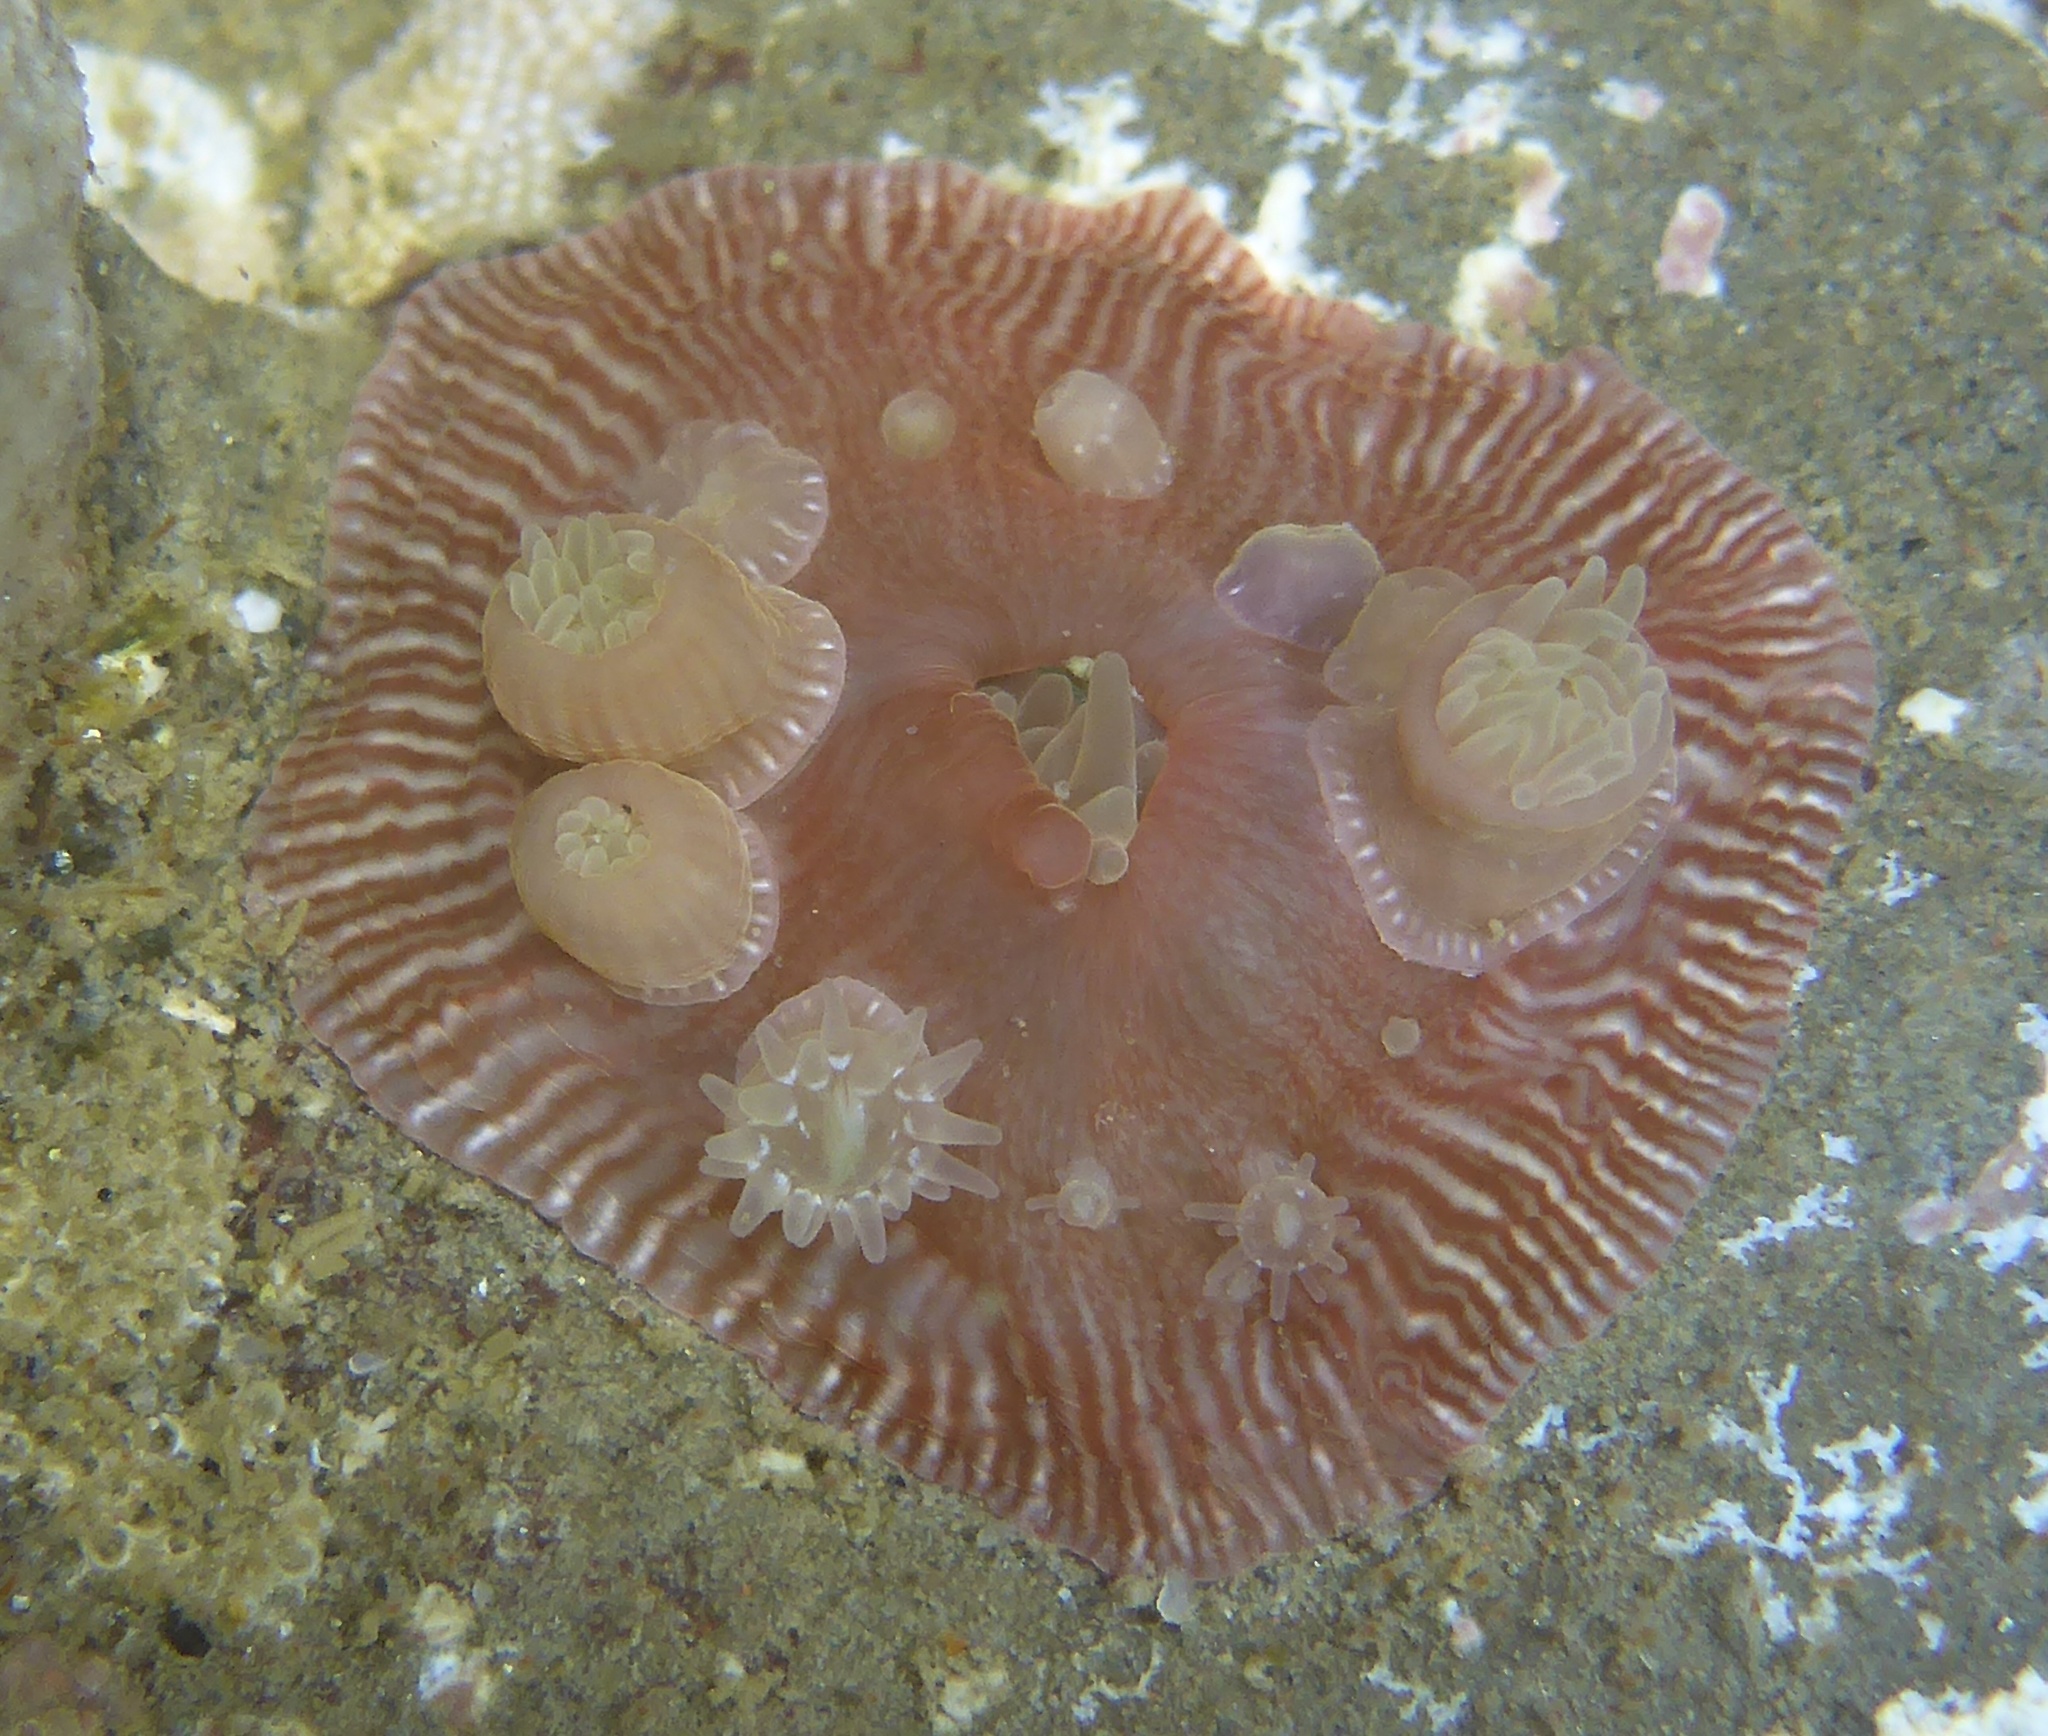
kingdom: Animalia
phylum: Cnidaria
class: Anthozoa
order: Actiniaria
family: Actiniidae
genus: Epiactis
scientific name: Epiactis prolifera
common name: Brooding anemone
